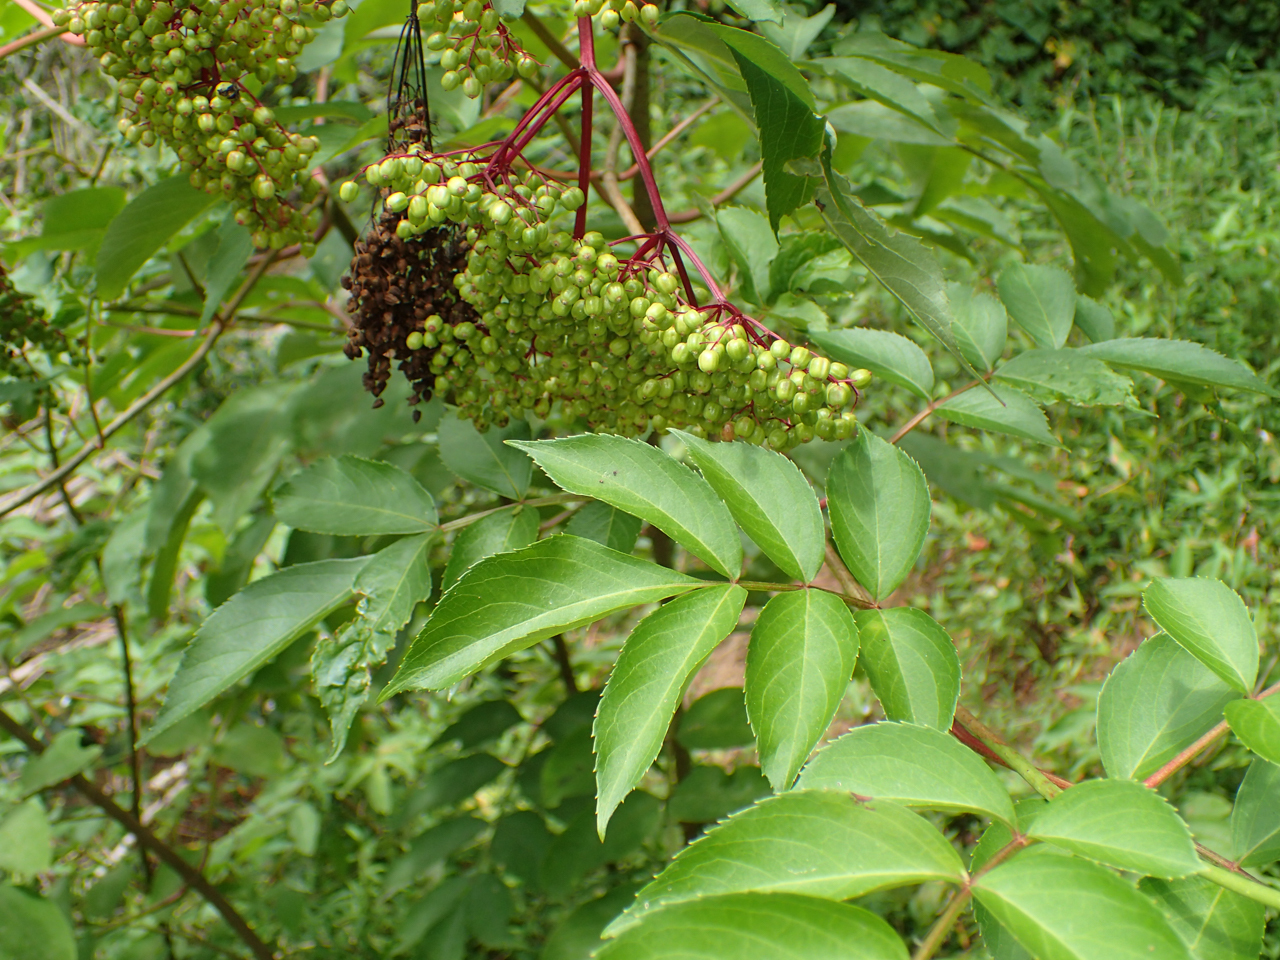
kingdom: Plantae
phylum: Tracheophyta
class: Magnoliopsida
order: Dipsacales
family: Viburnaceae
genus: Sambucus
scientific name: Sambucus canadensis
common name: American elder
